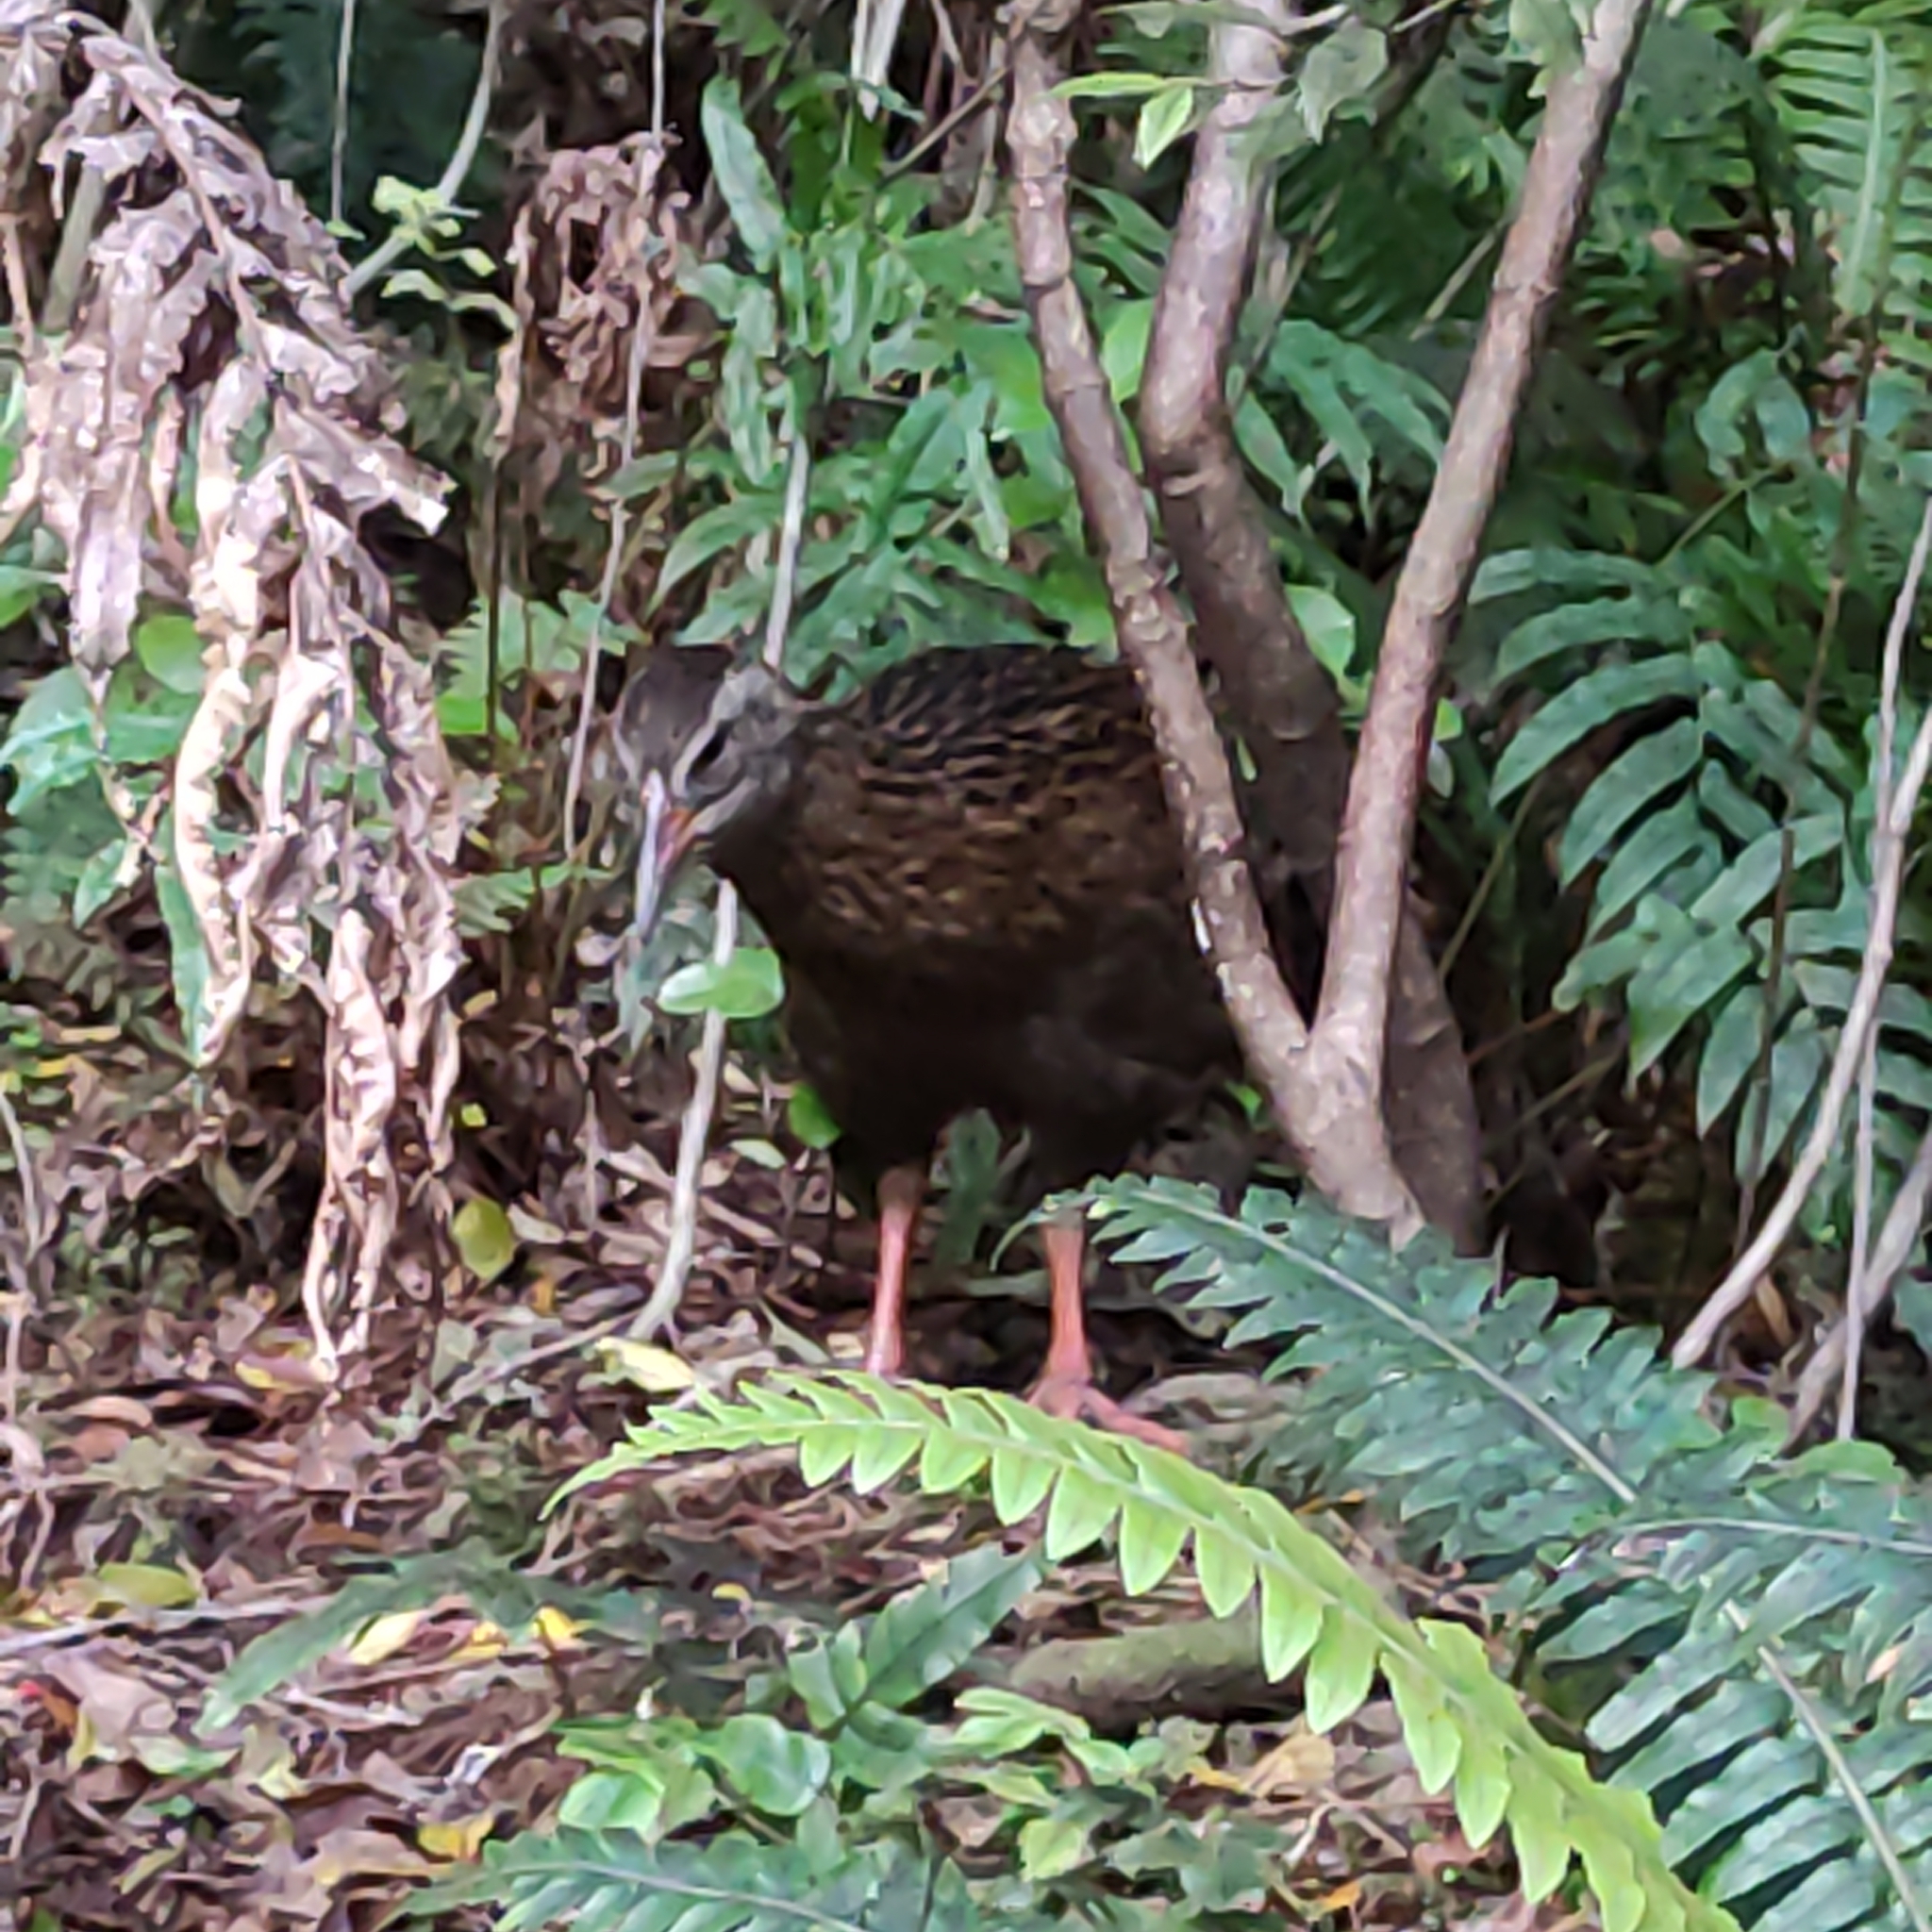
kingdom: Animalia
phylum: Chordata
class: Aves
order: Gruiformes
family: Rallidae
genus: Gallirallus
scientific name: Gallirallus australis
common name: Weka
